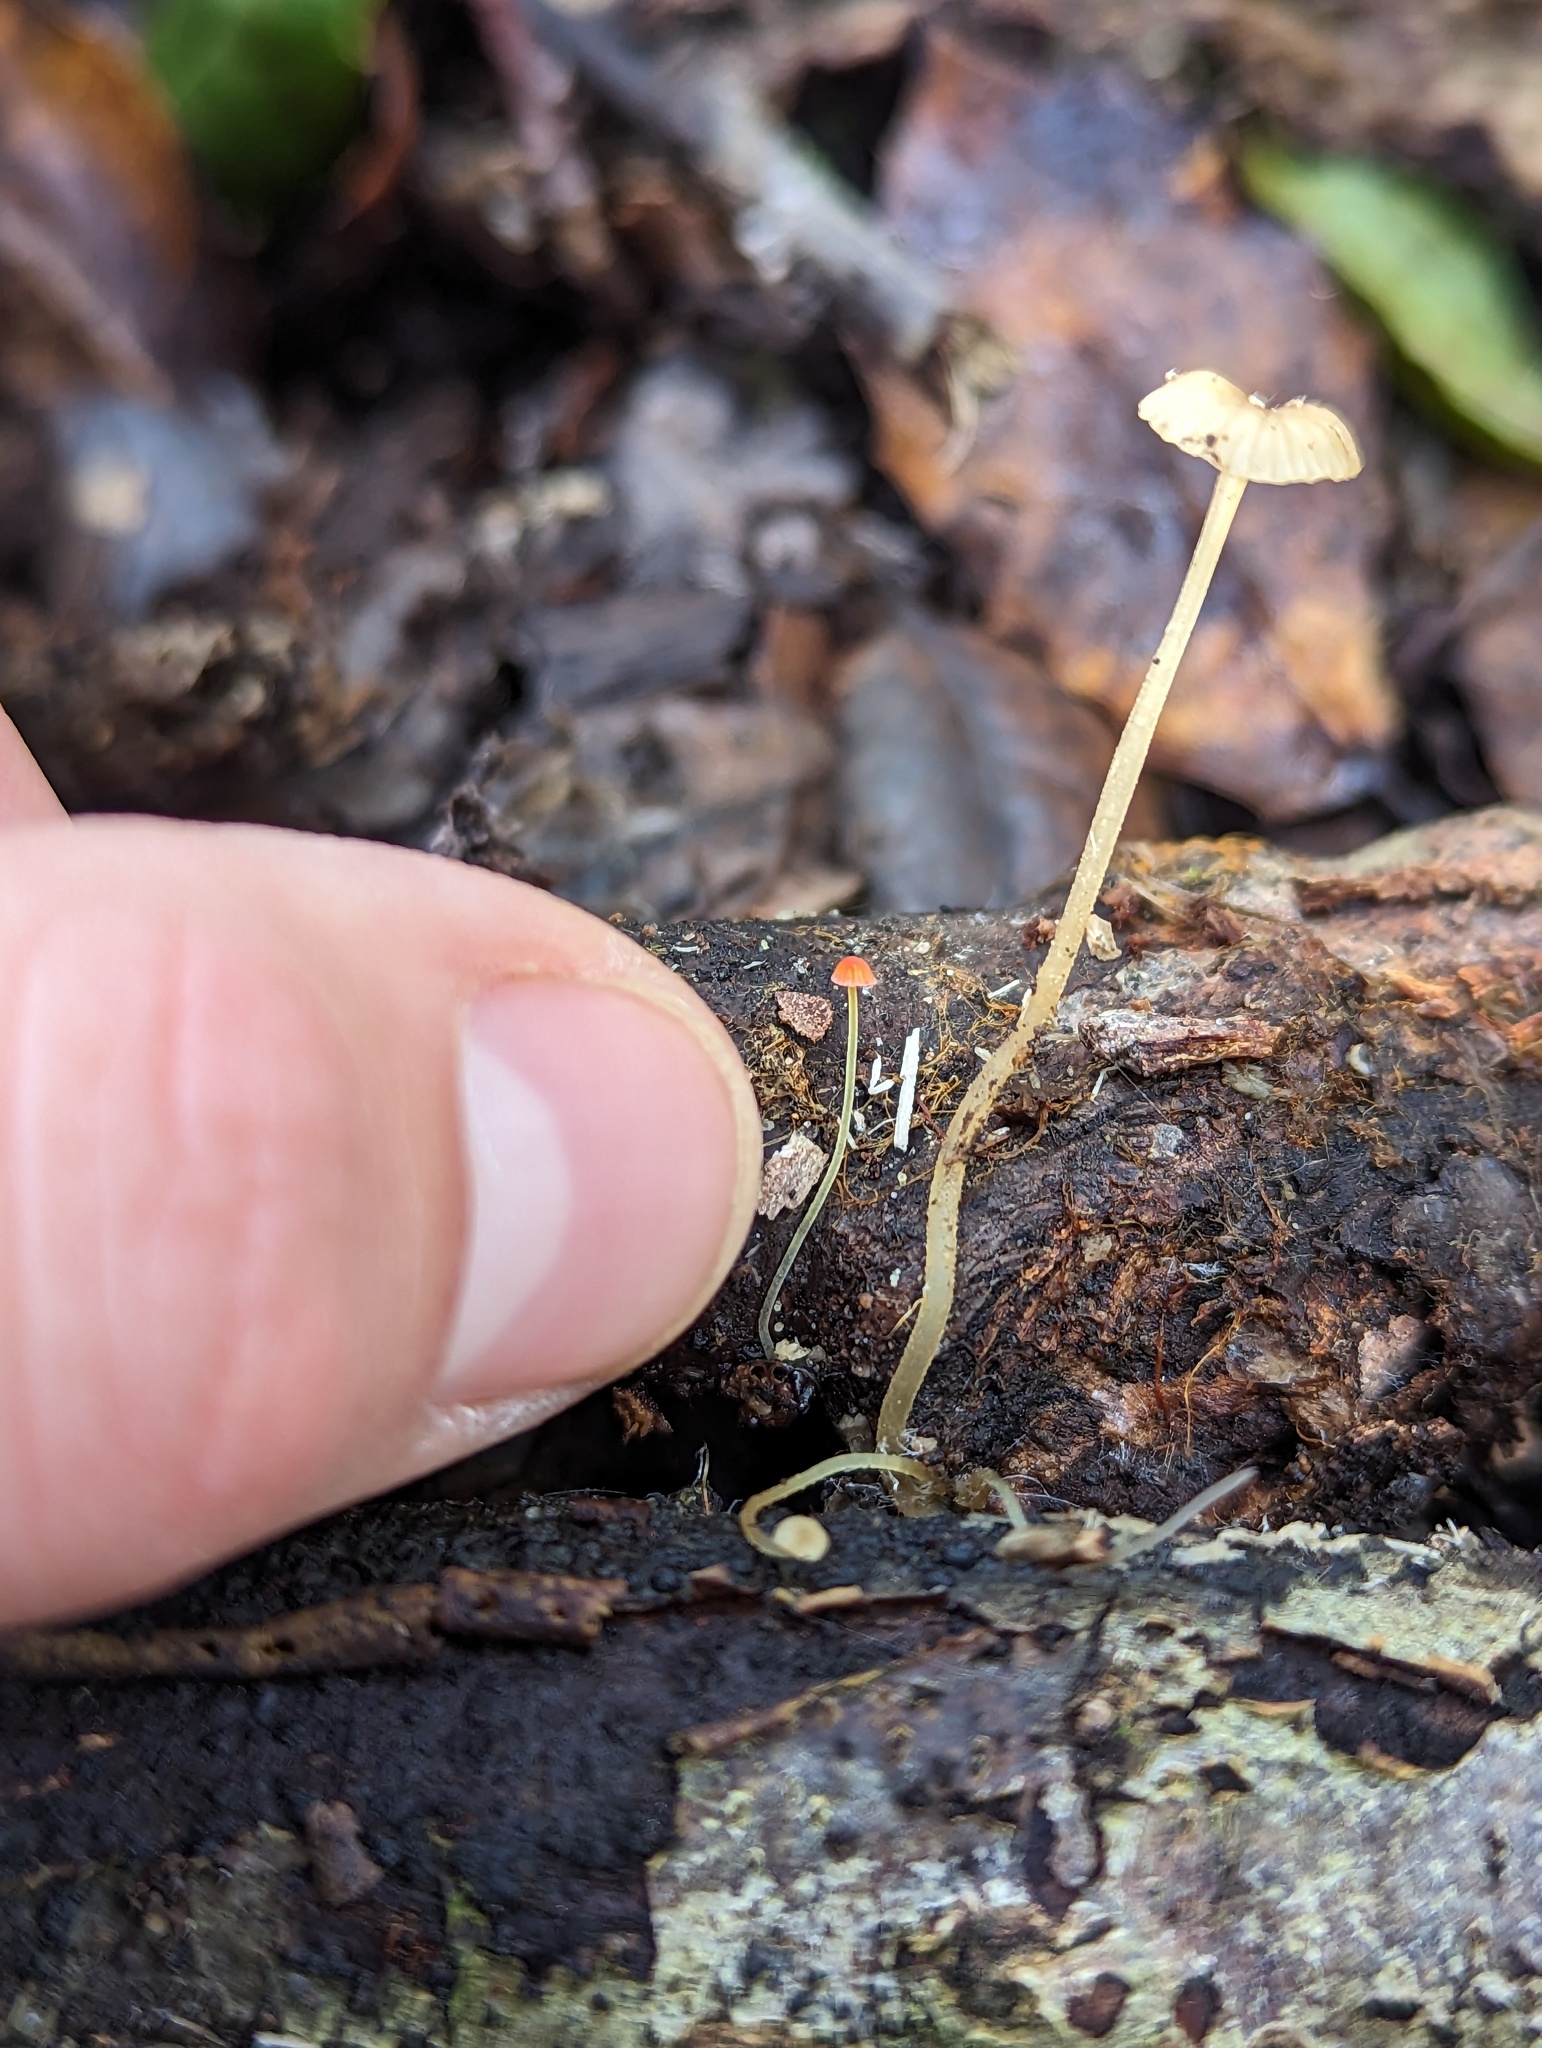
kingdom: Fungi
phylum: Basidiomycota
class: Agaricomycetes
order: Agaricales
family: Mycenaceae
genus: Mycena
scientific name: Mycena acicula
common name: Orange bonnet
